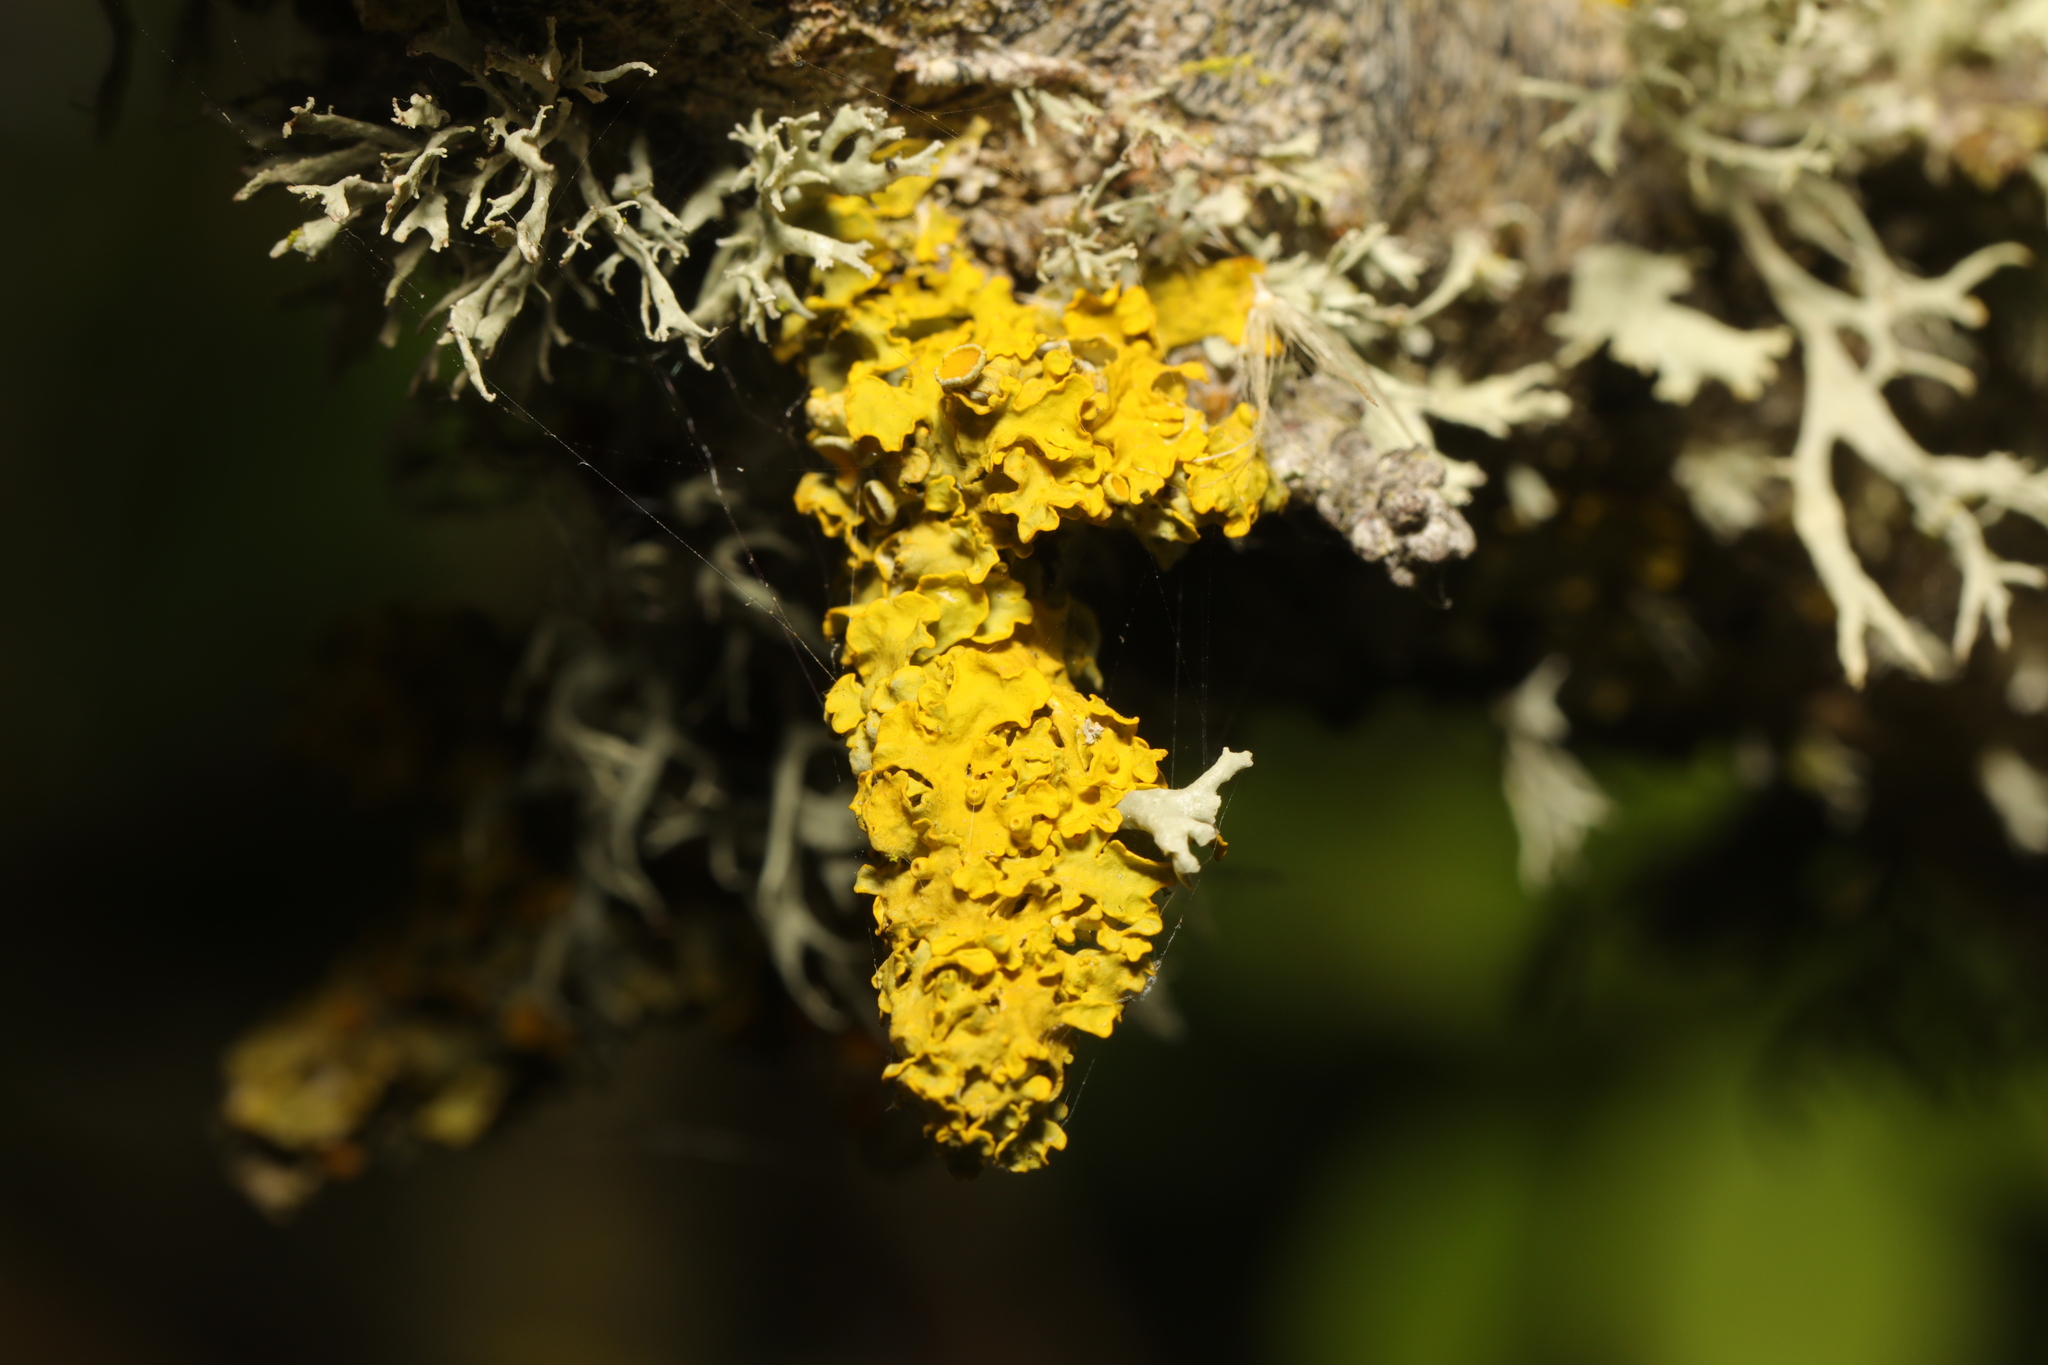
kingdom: Fungi
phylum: Ascomycota
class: Lecanoromycetes
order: Teloschistales
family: Teloschistaceae
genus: Xanthoria
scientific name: Xanthoria parietina
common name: Common orange lichen
